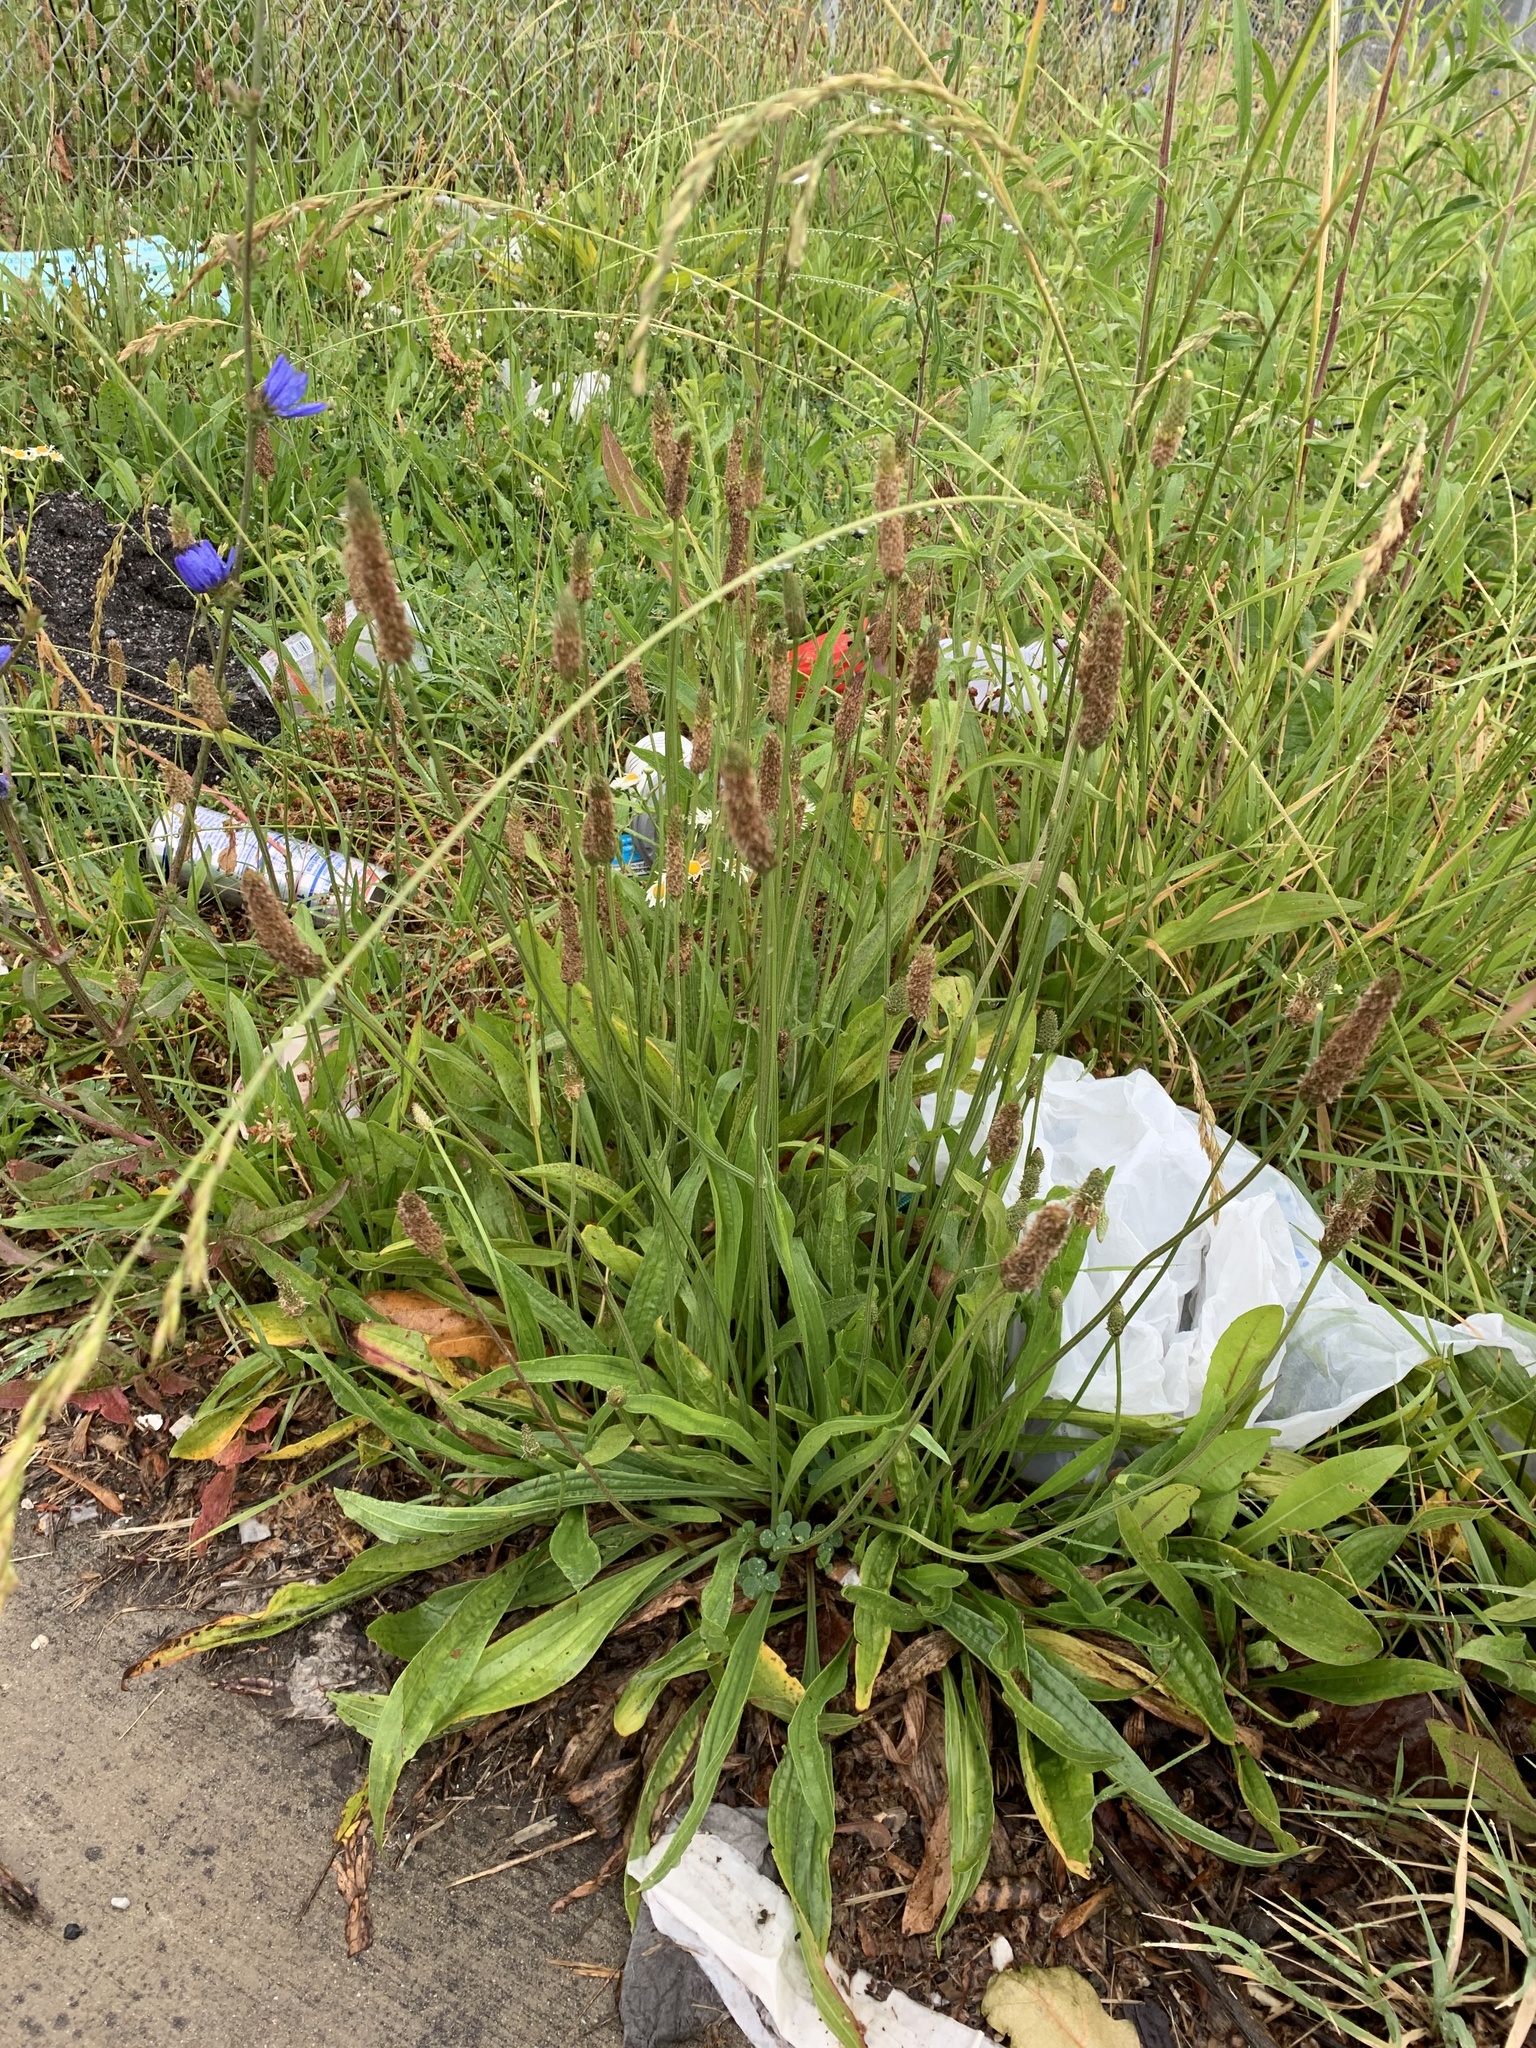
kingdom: Plantae
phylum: Tracheophyta
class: Magnoliopsida
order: Lamiales
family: Plantaginaceae
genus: Plantago
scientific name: Plantago lanceolata
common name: Ribwort plantain
